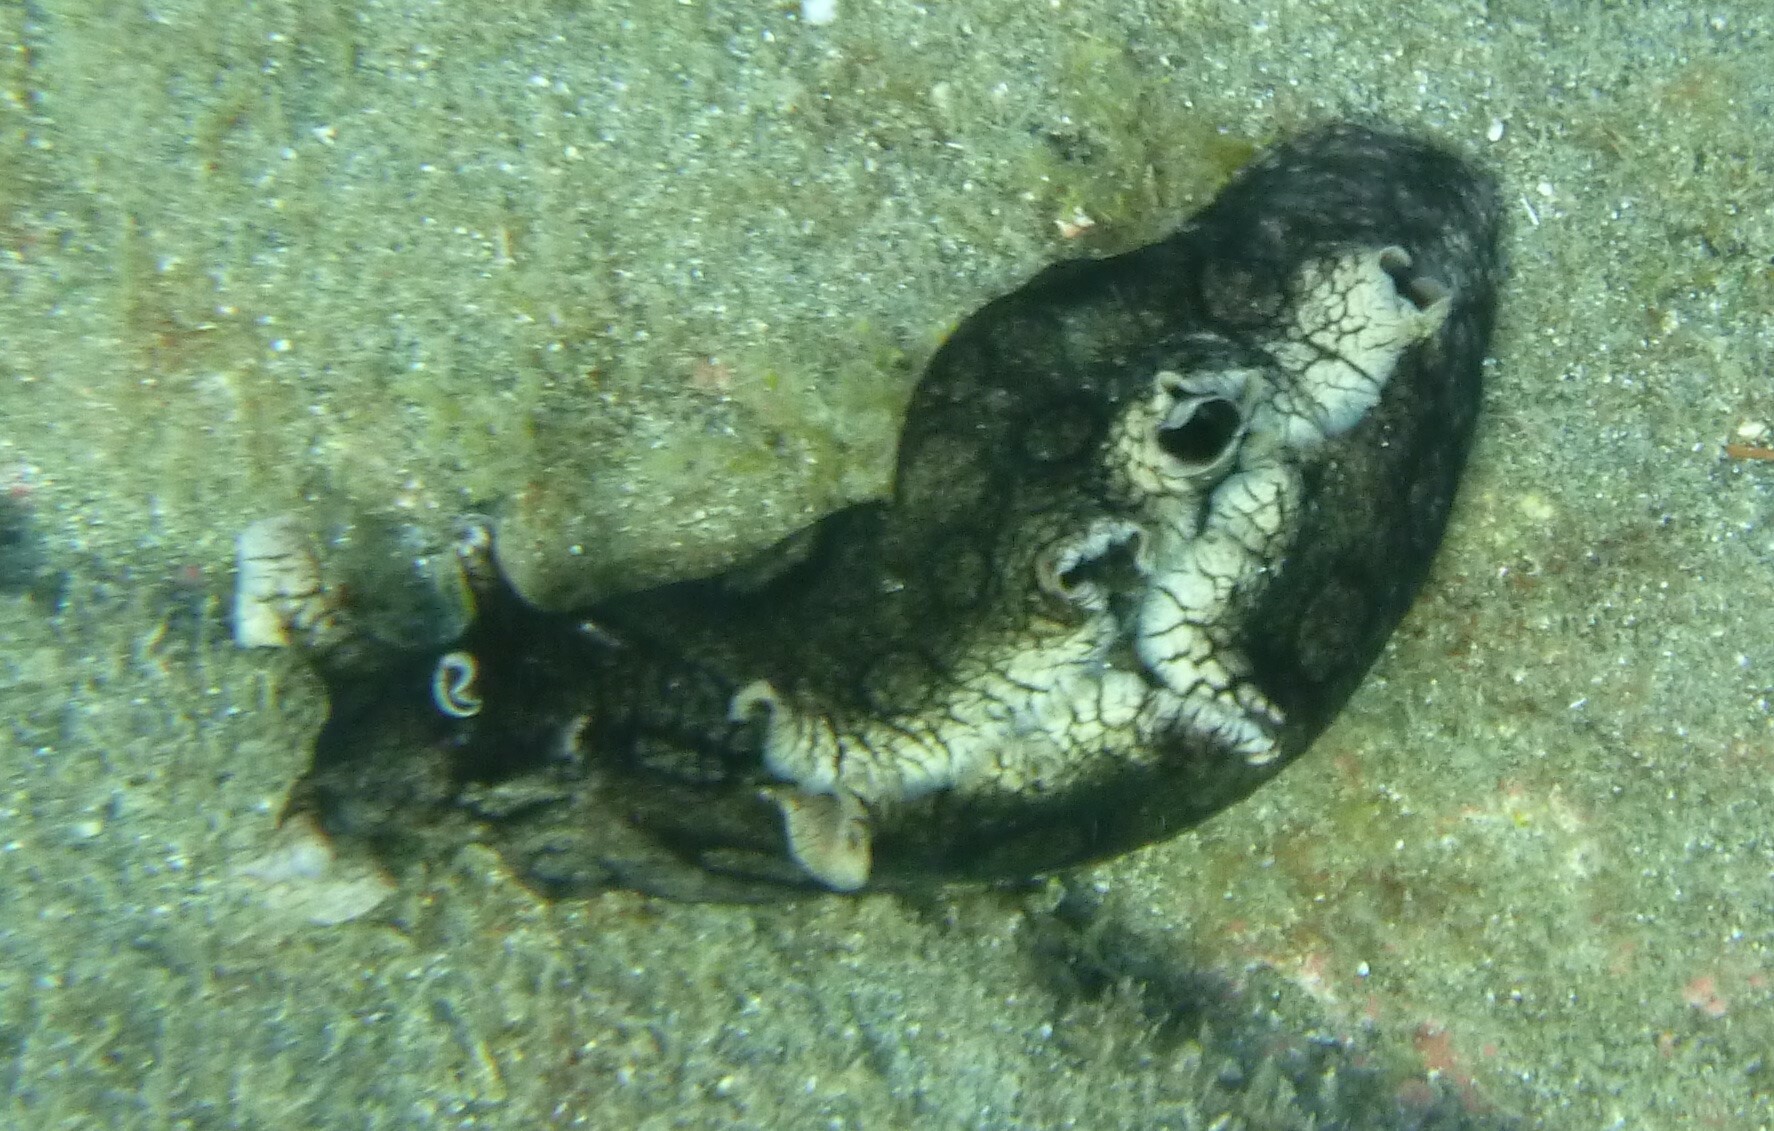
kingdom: Animalia
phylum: Mollusca
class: Gastropoda
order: Aplysiida
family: Aplysiidae
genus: Aplysia
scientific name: Aplysia dactylomela
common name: Large-spotted sea hare
